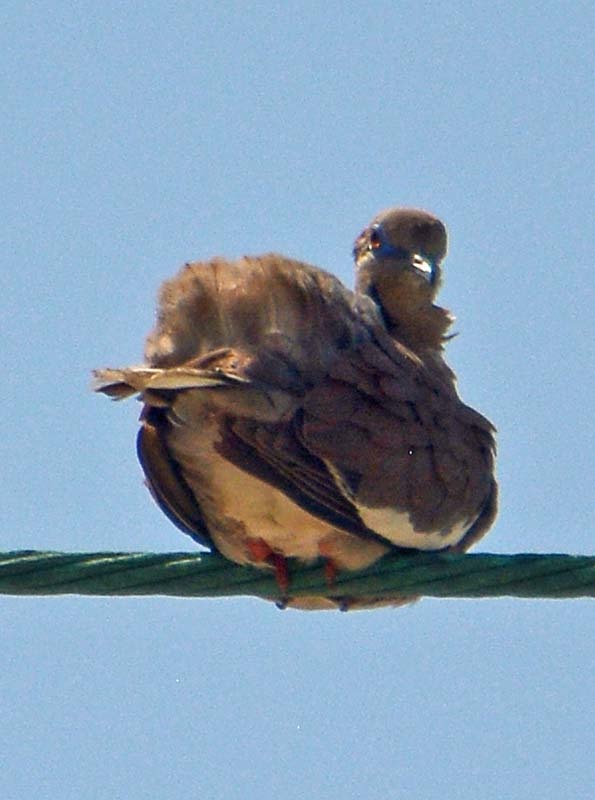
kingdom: Animalia
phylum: Chordata
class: Aves
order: Columbiformes
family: Columbidae
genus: Zenaida
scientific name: Zenaida asiatica
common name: White-winged dove
